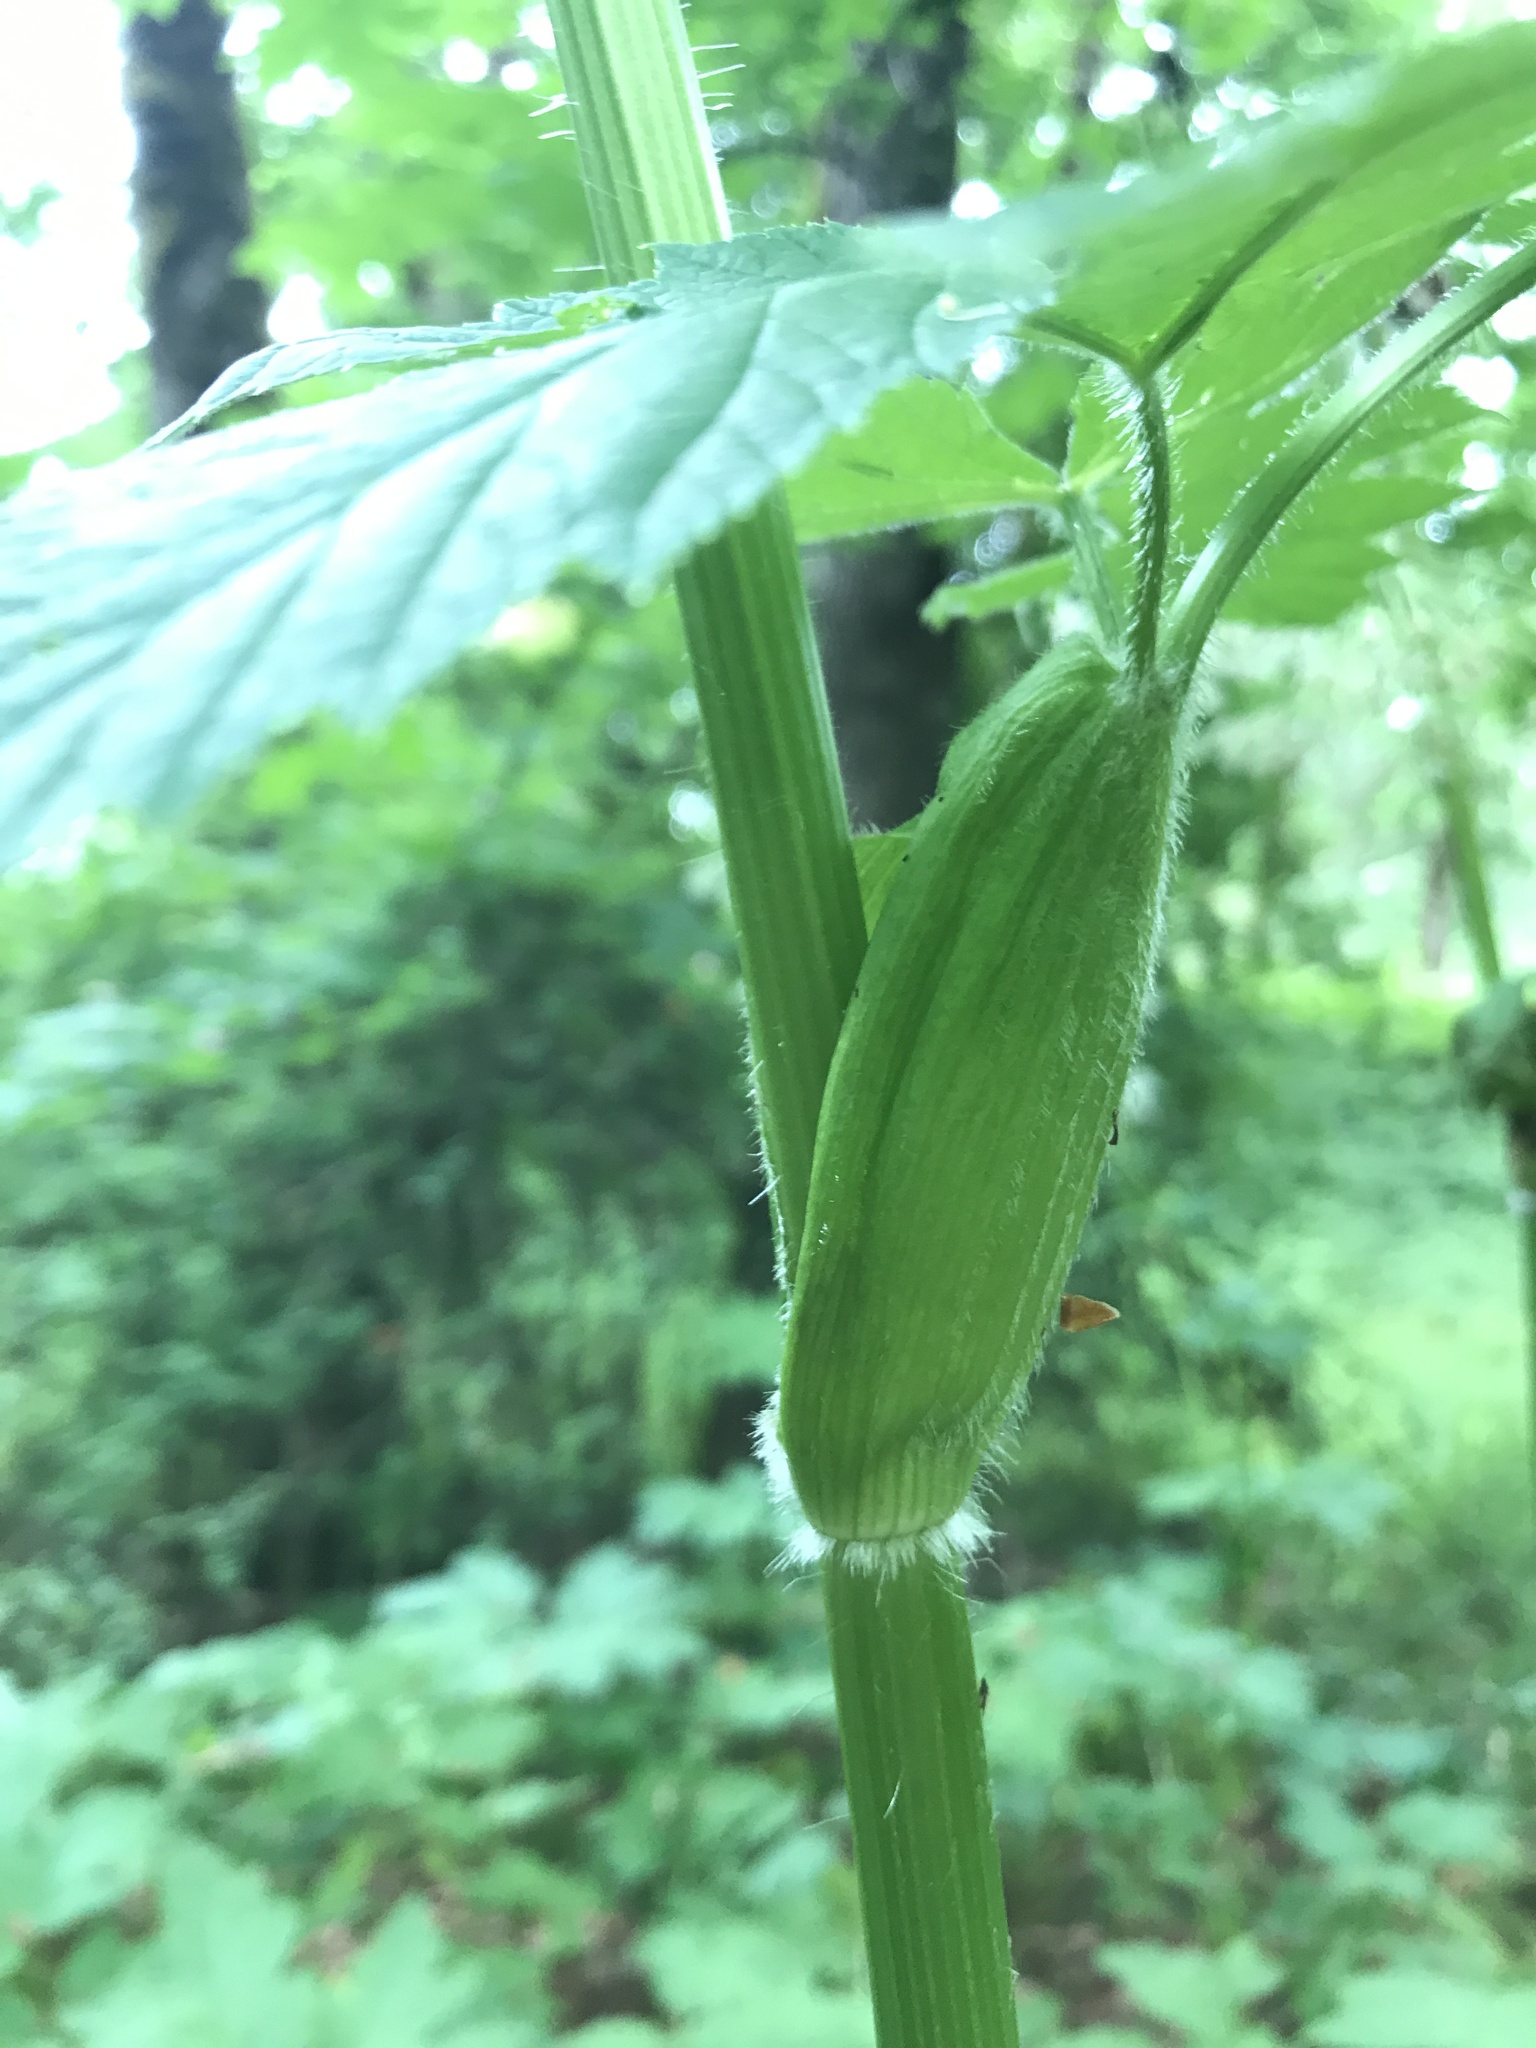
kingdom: Plantae
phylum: Tracheophyta
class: Magnoliopsida
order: Apiales
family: Apiaceae
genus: Heracleum
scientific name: Heracleum maximum
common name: American cow parsnip
